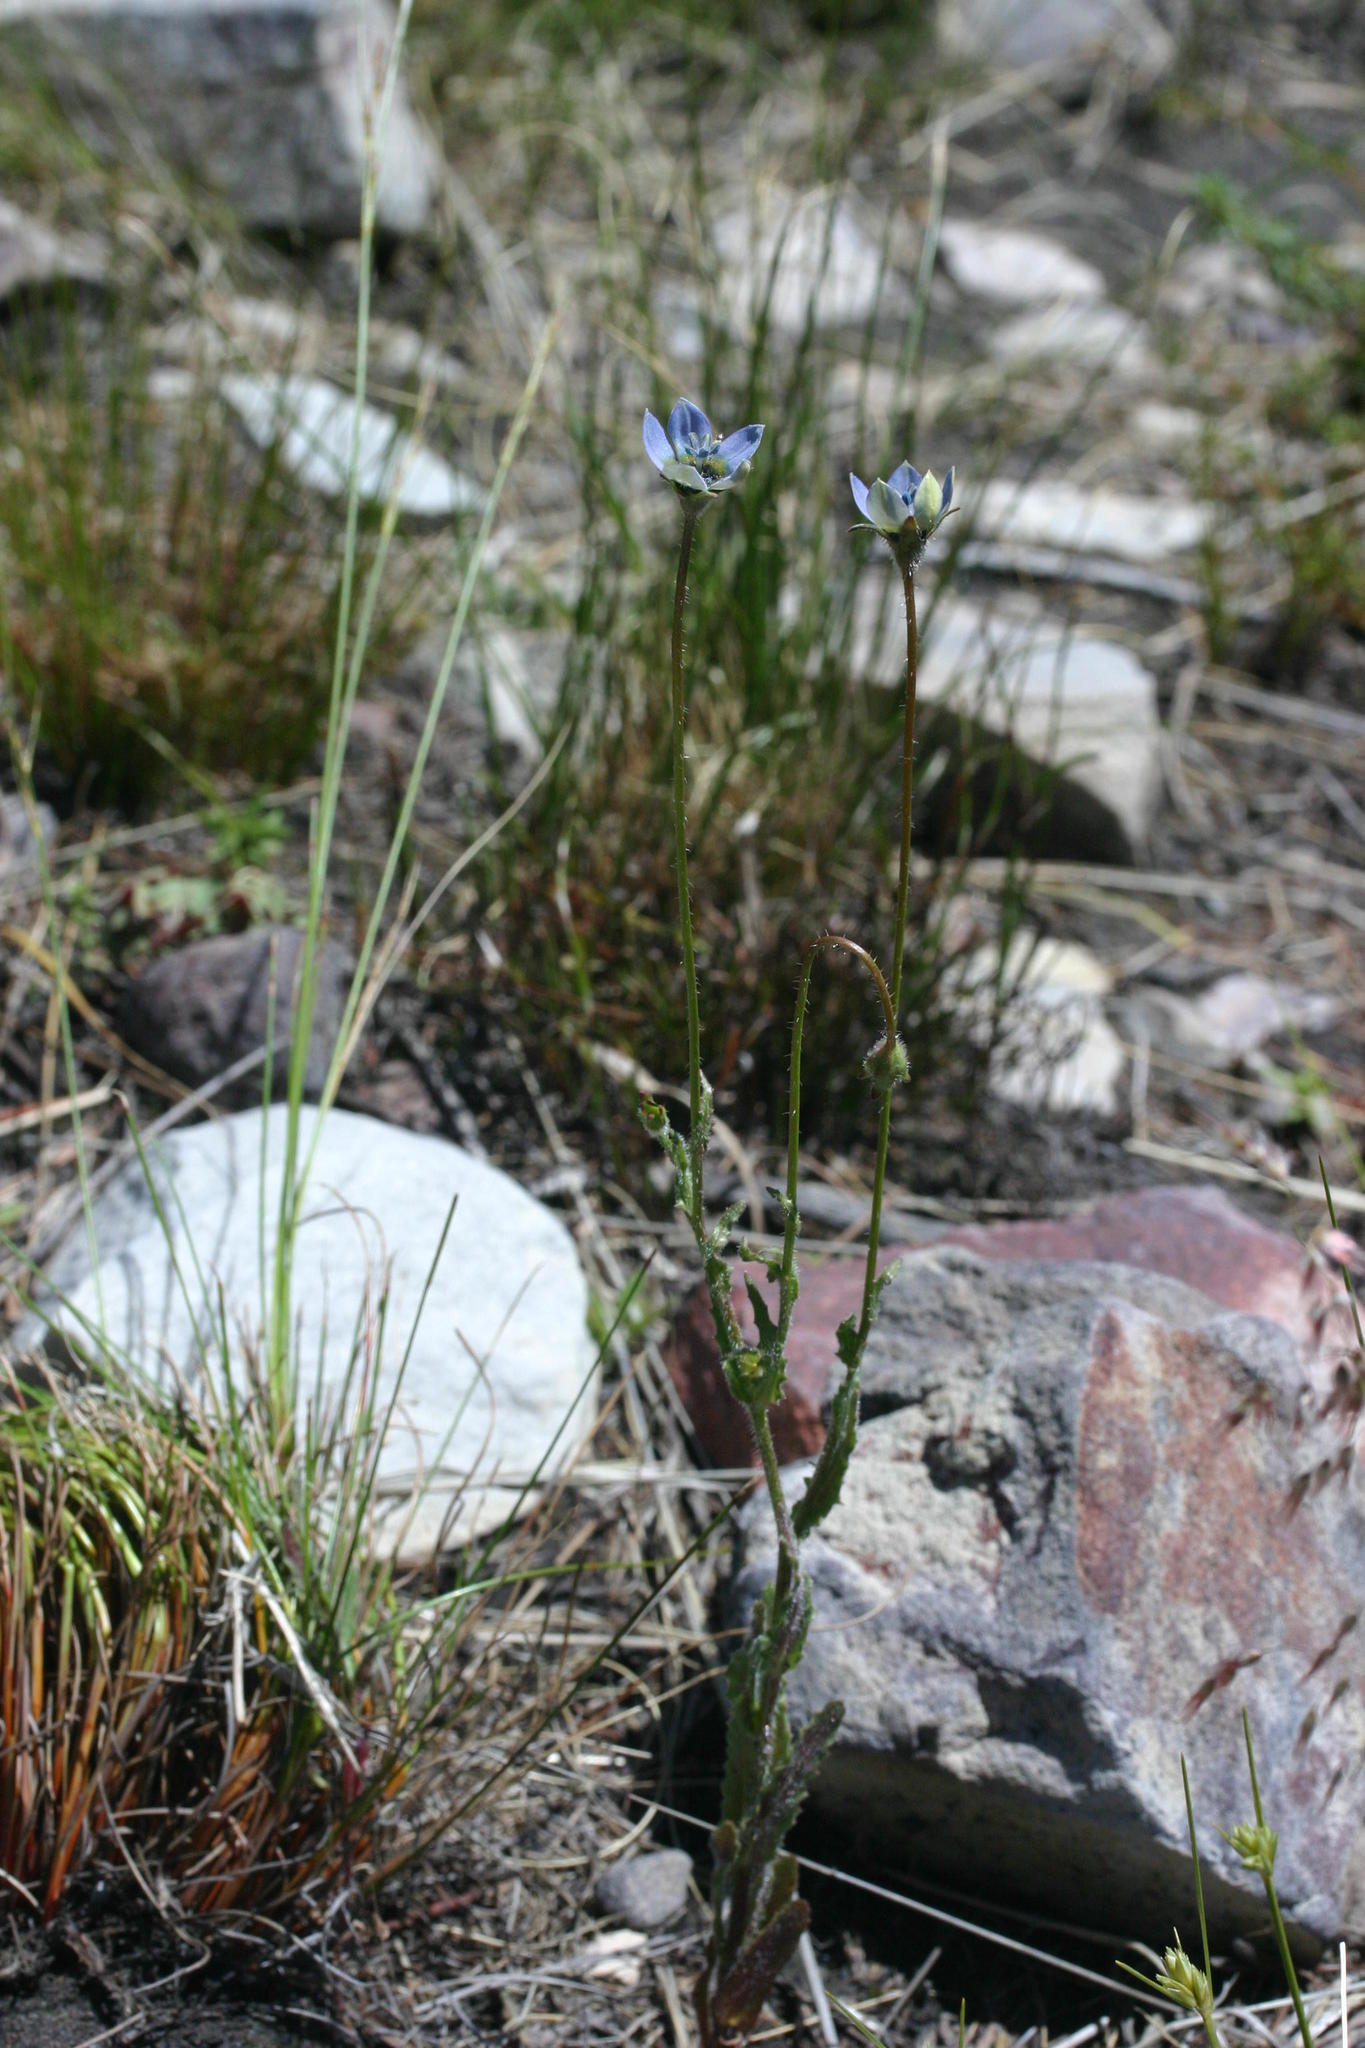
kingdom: Plantae
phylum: Tracheophyta
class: Magnoliopsida
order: Asterales
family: Campanulaceae
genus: Wahlenbergia
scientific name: Wahlenbergia capensis
